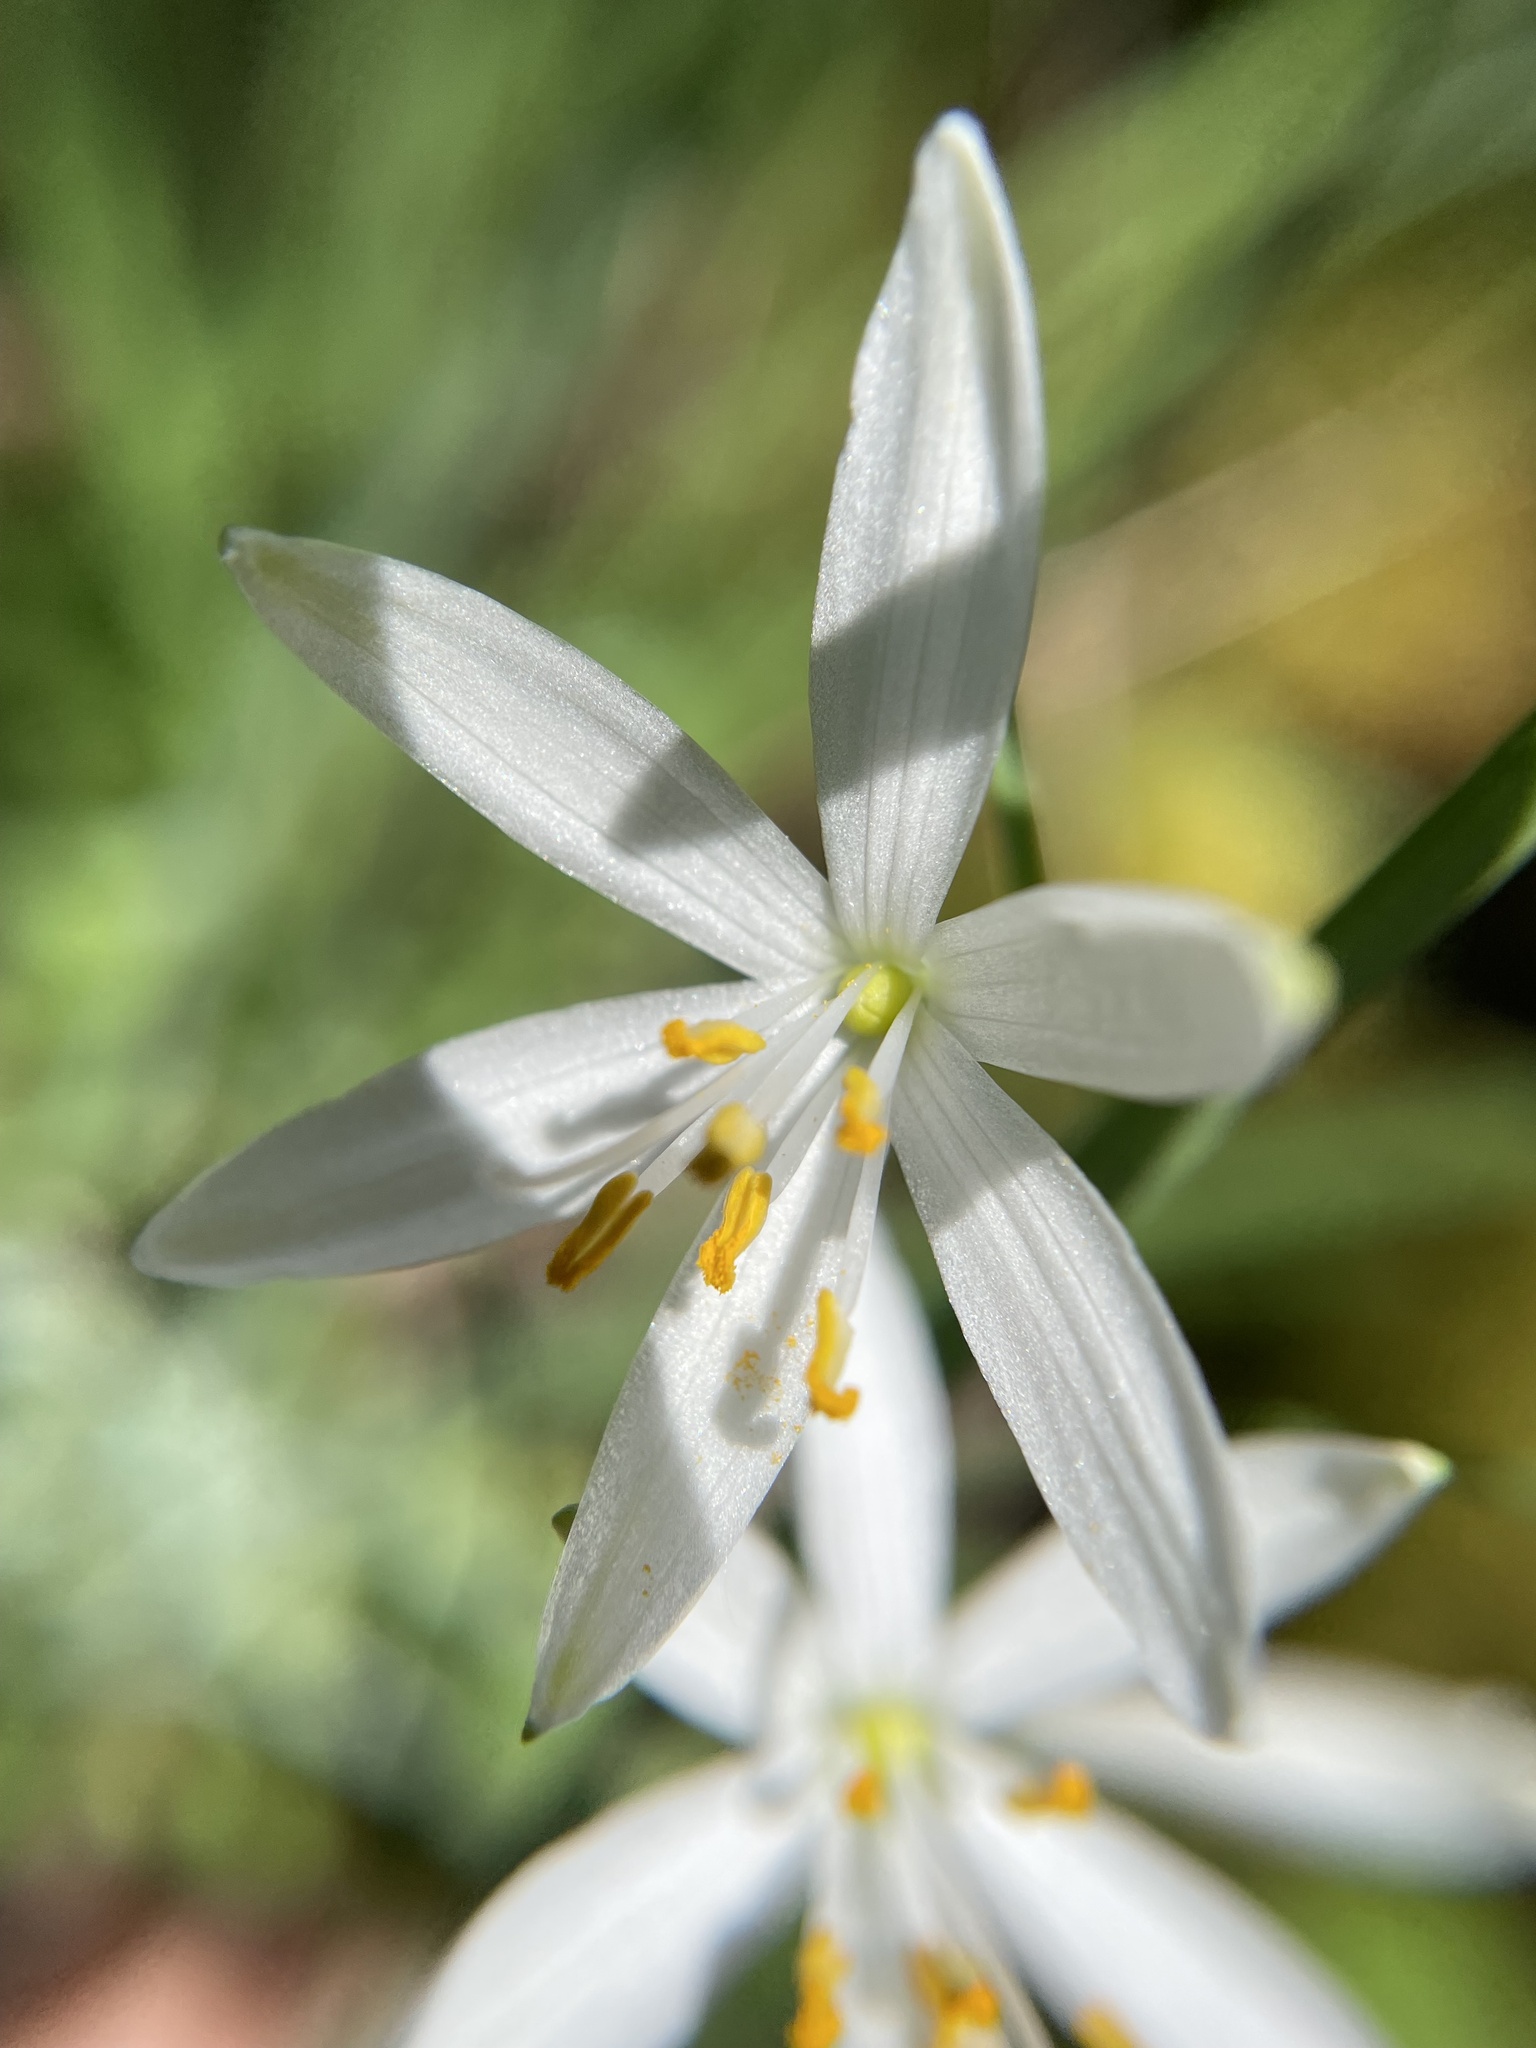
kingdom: Plantae
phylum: Tracheophyta
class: Liliopsida
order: Asparagales
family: Asparagaceae
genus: Anthericum
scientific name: Anthericum liliago
